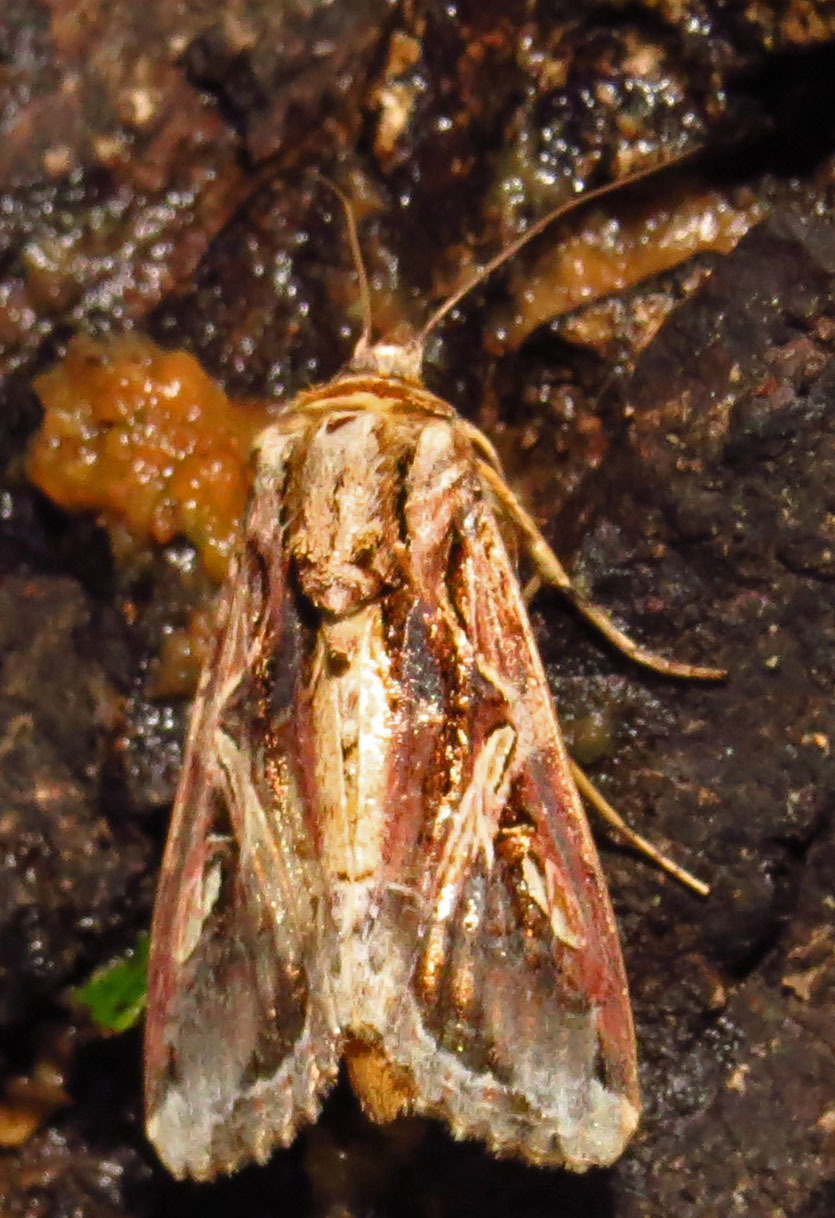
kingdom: Animalia
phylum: Arthropoda
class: Insecta
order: Lepidoptera
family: Noctuidae
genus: Spodoptera
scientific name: Spodoptera dolichos
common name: Sweetpotato armyworm
